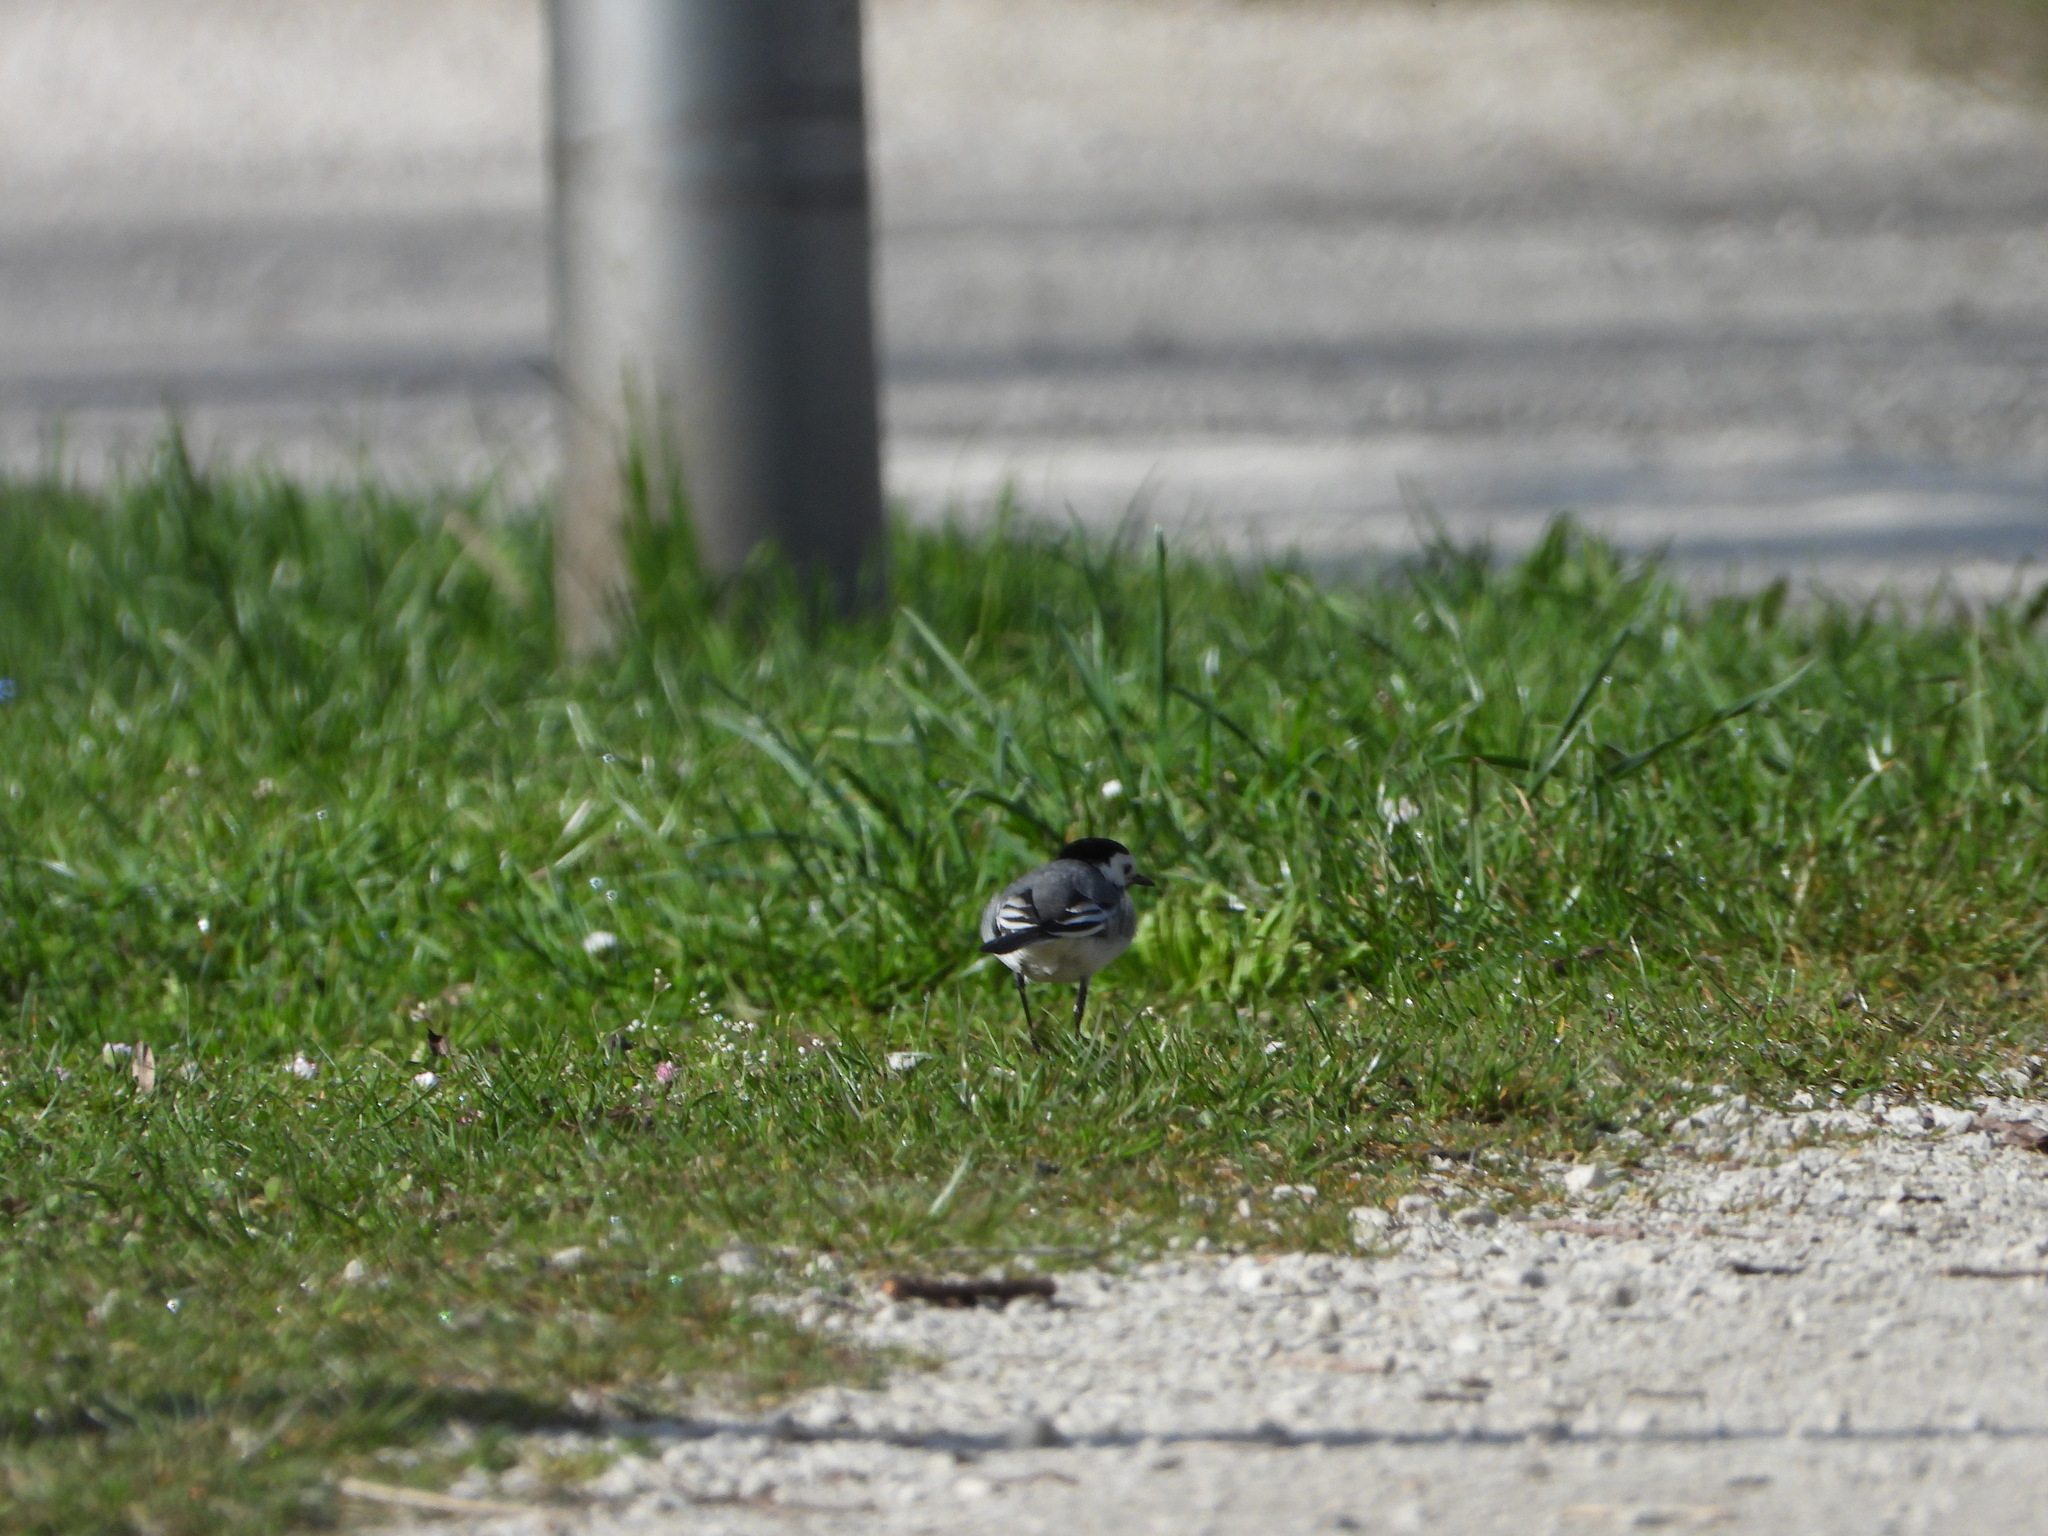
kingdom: Animalia
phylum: Chordata
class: Aves
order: Passeriformes
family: Motacillidae
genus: Motacilla
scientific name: Motacilla alba
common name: White wagtail
